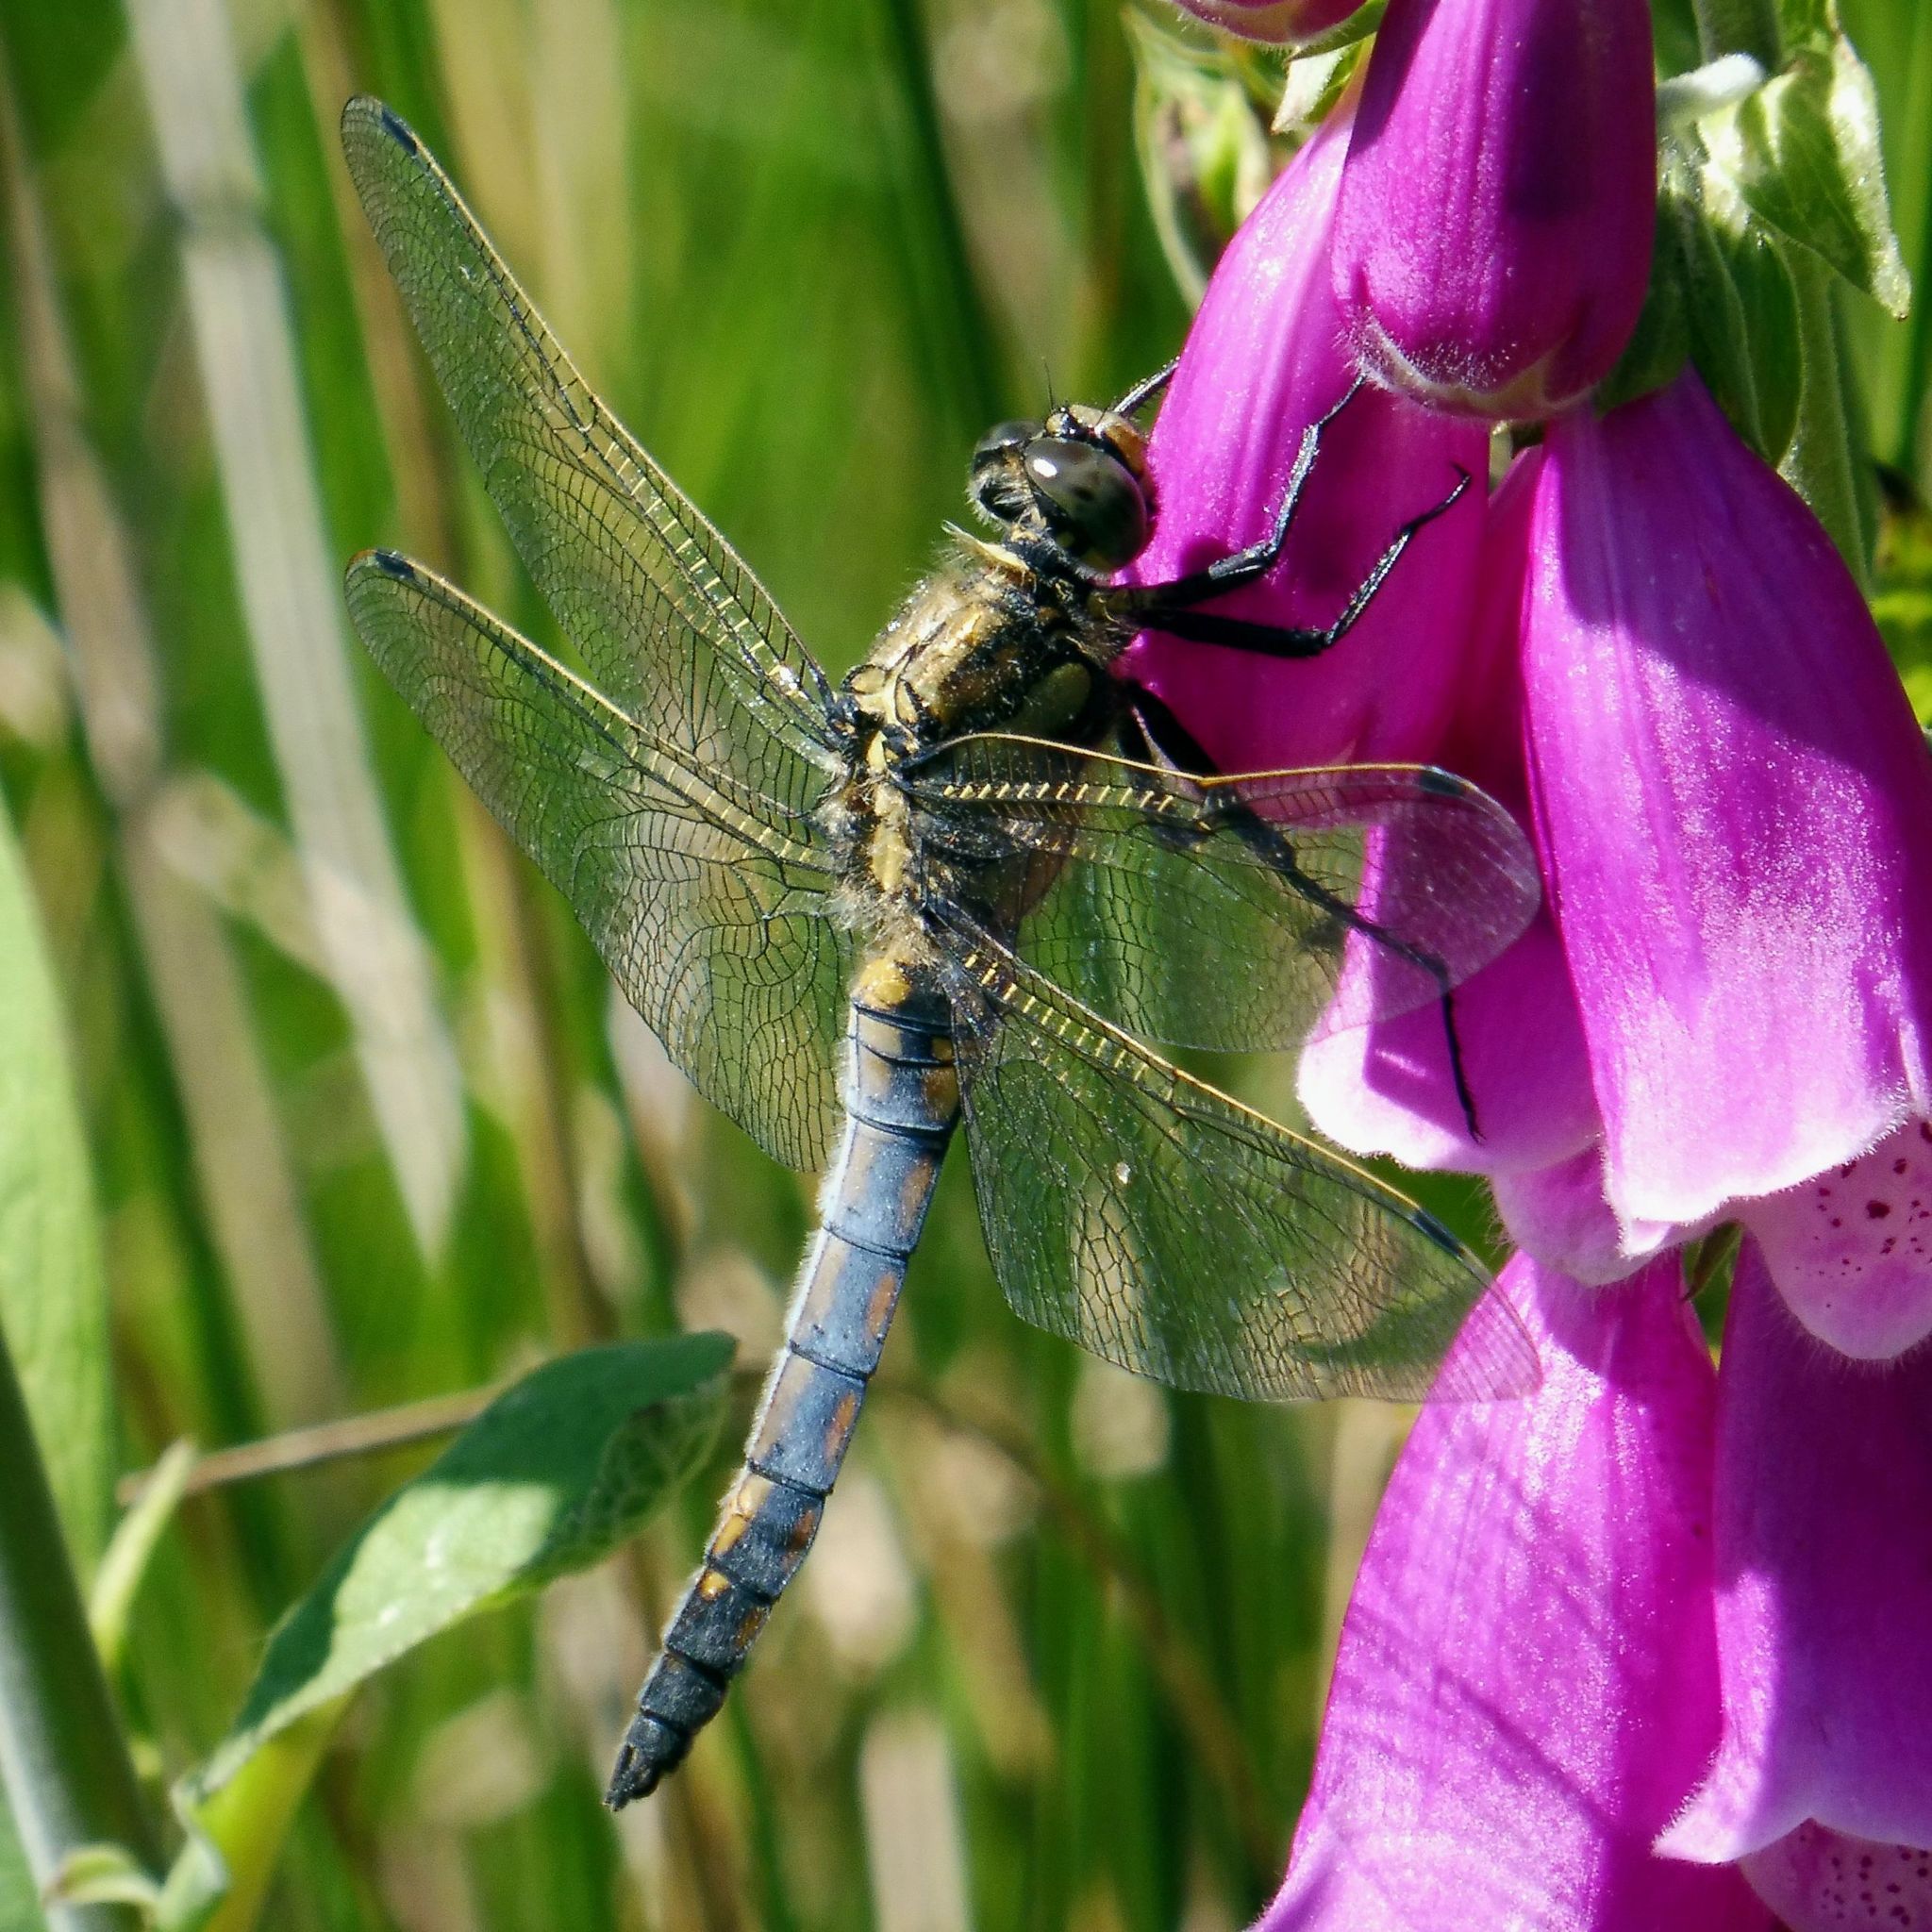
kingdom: Animalia
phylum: Arthropoda
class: Insecta
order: Odonata
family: Libellulidae
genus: Orthetrum
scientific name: Orthetrum cancellatum
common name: Black-tailed skimmer
